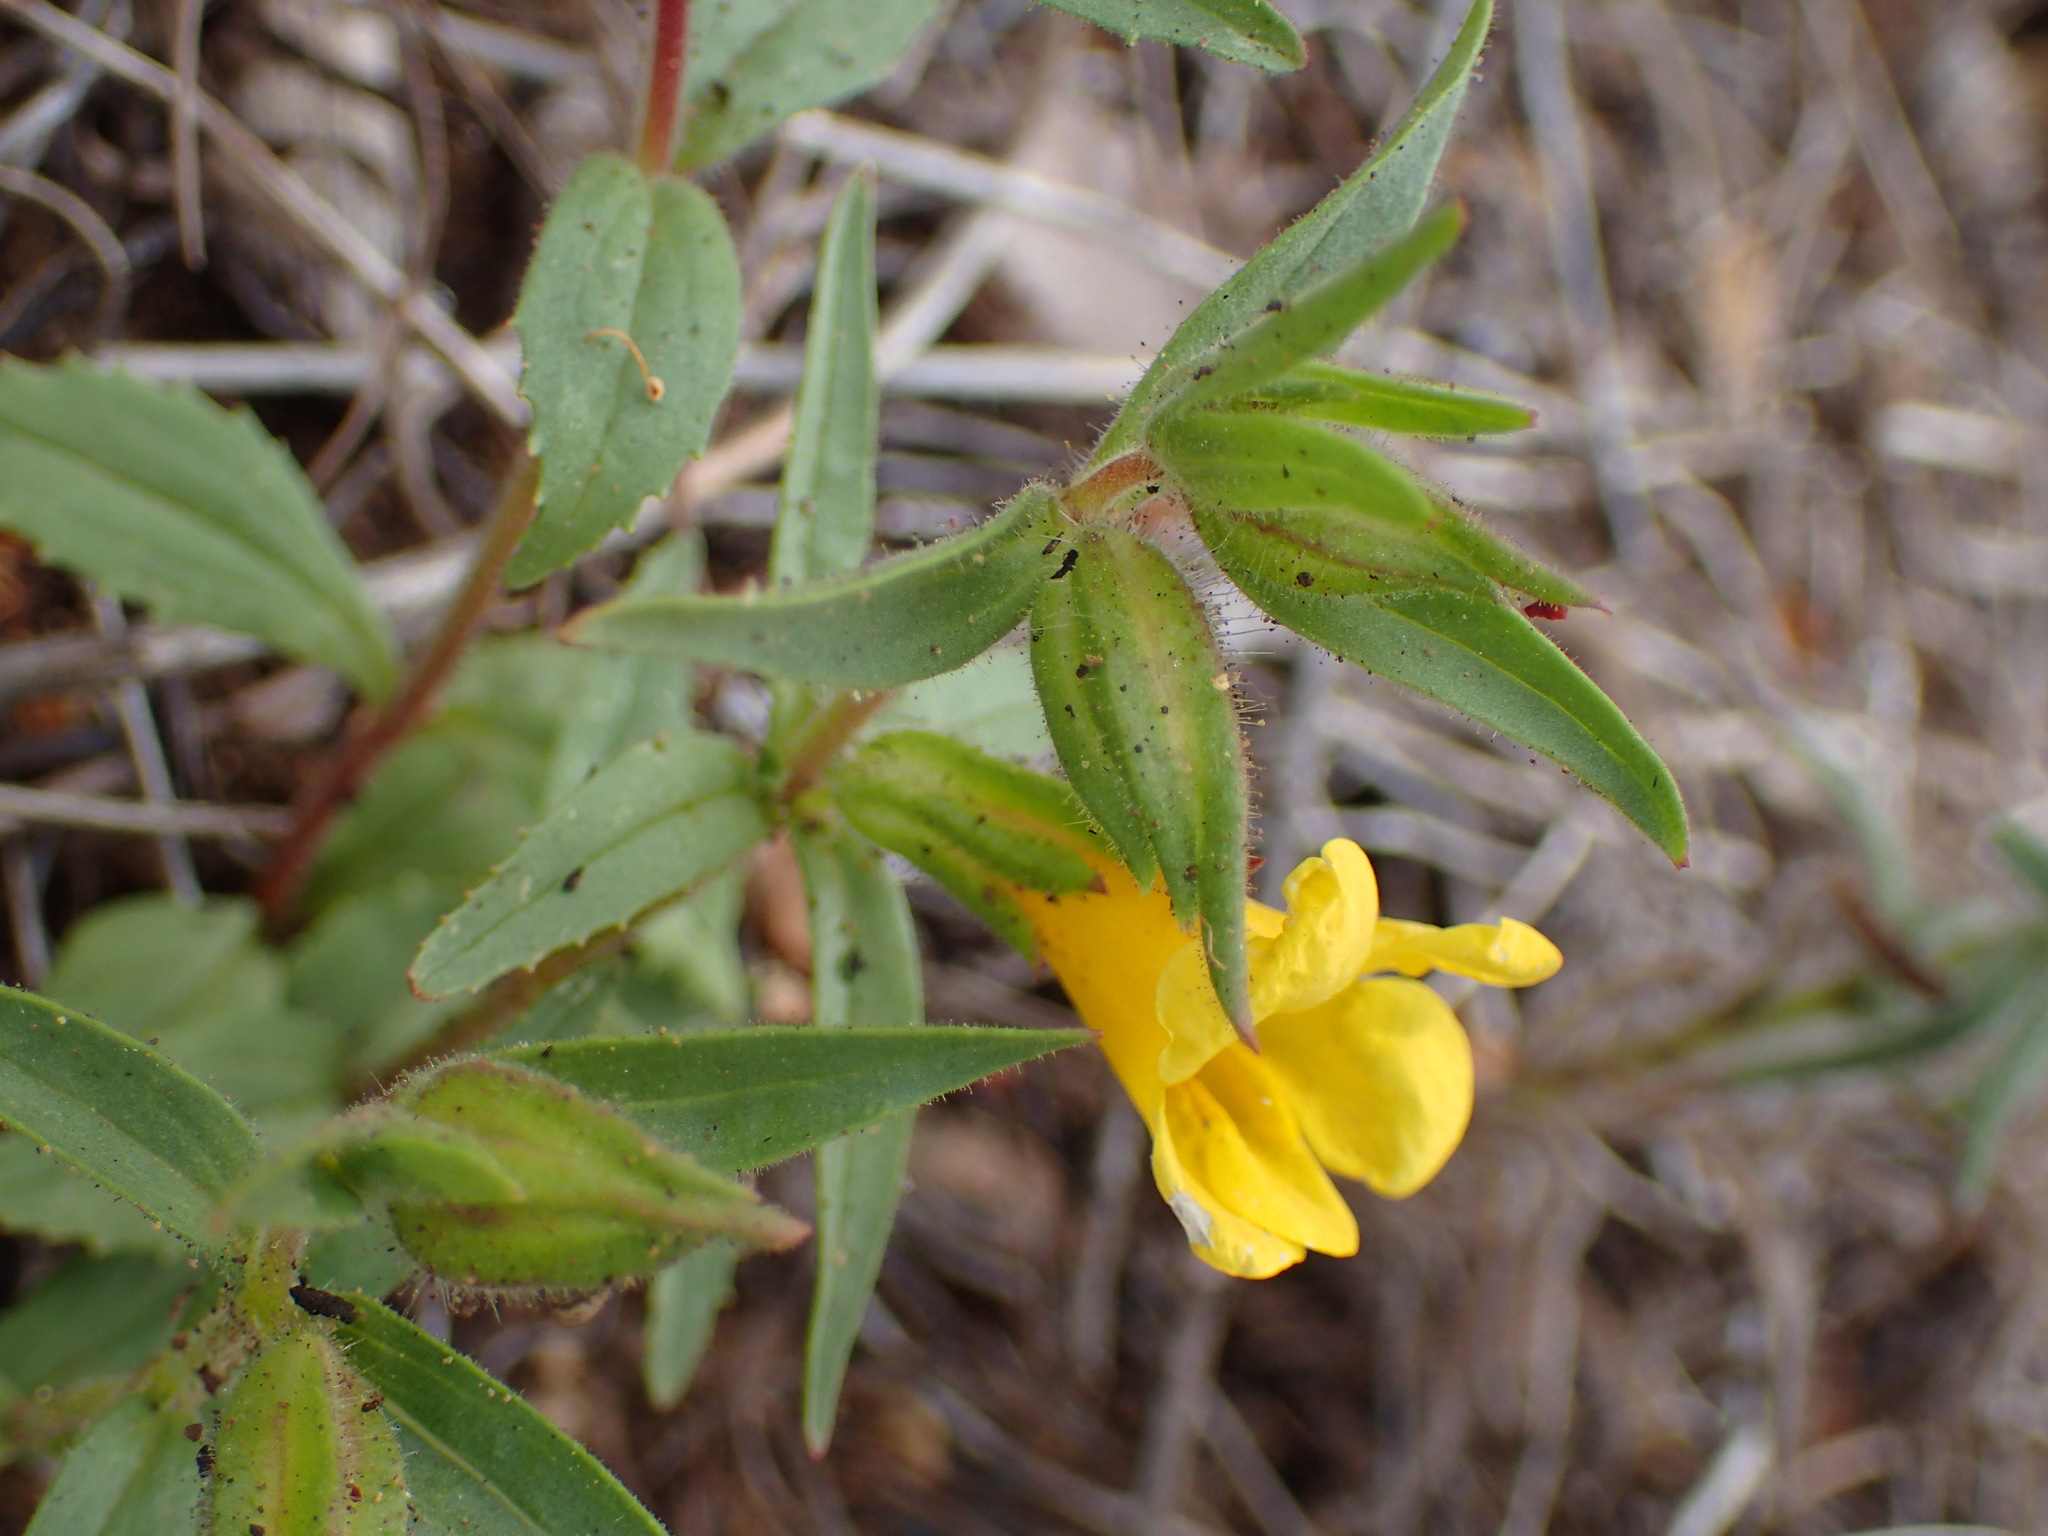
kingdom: Plantae
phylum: Tracheophyta
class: Magnoliopsida
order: Lamiales
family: Phrymaceae
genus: Diplacus
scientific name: Diplacus brevipes
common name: Wide-throat yellow monkey-flower
